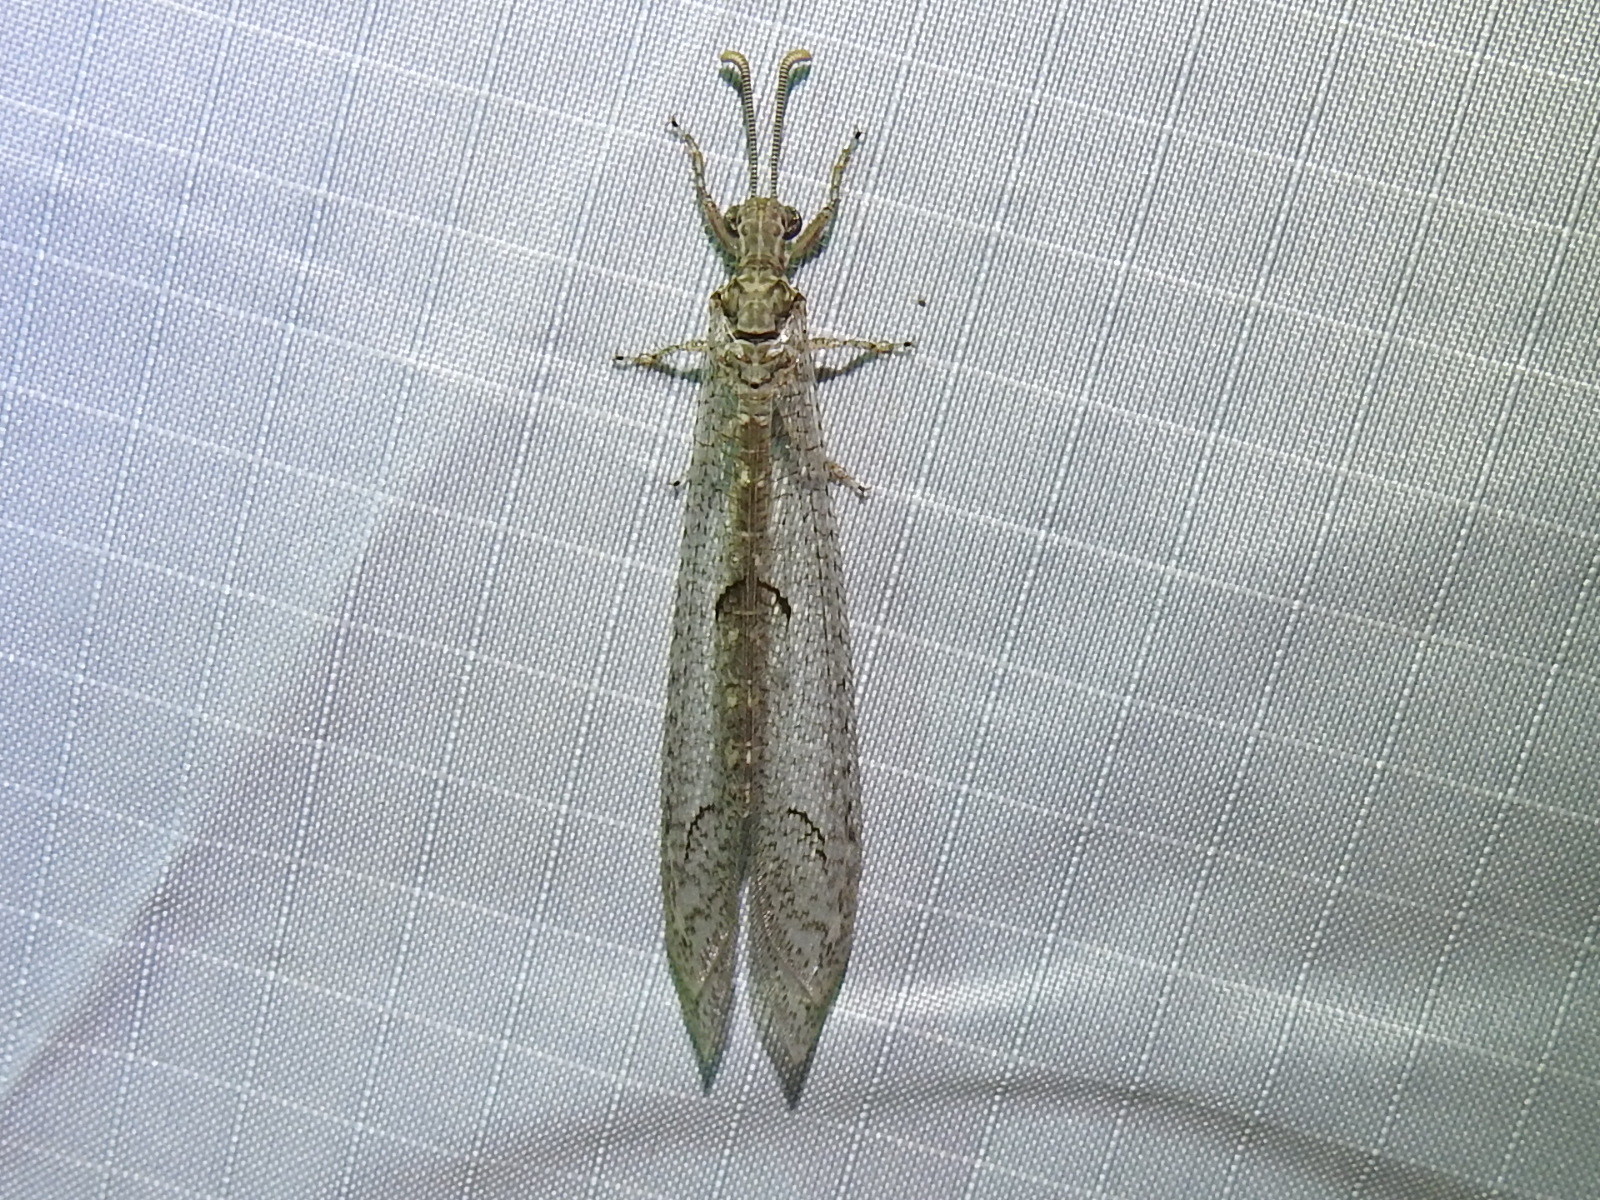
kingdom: Animalia
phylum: Arthropoda
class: Insecta
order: Neuroptera
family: Myrmeleontidae
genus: Euptilon
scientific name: Euptilon ornatum
